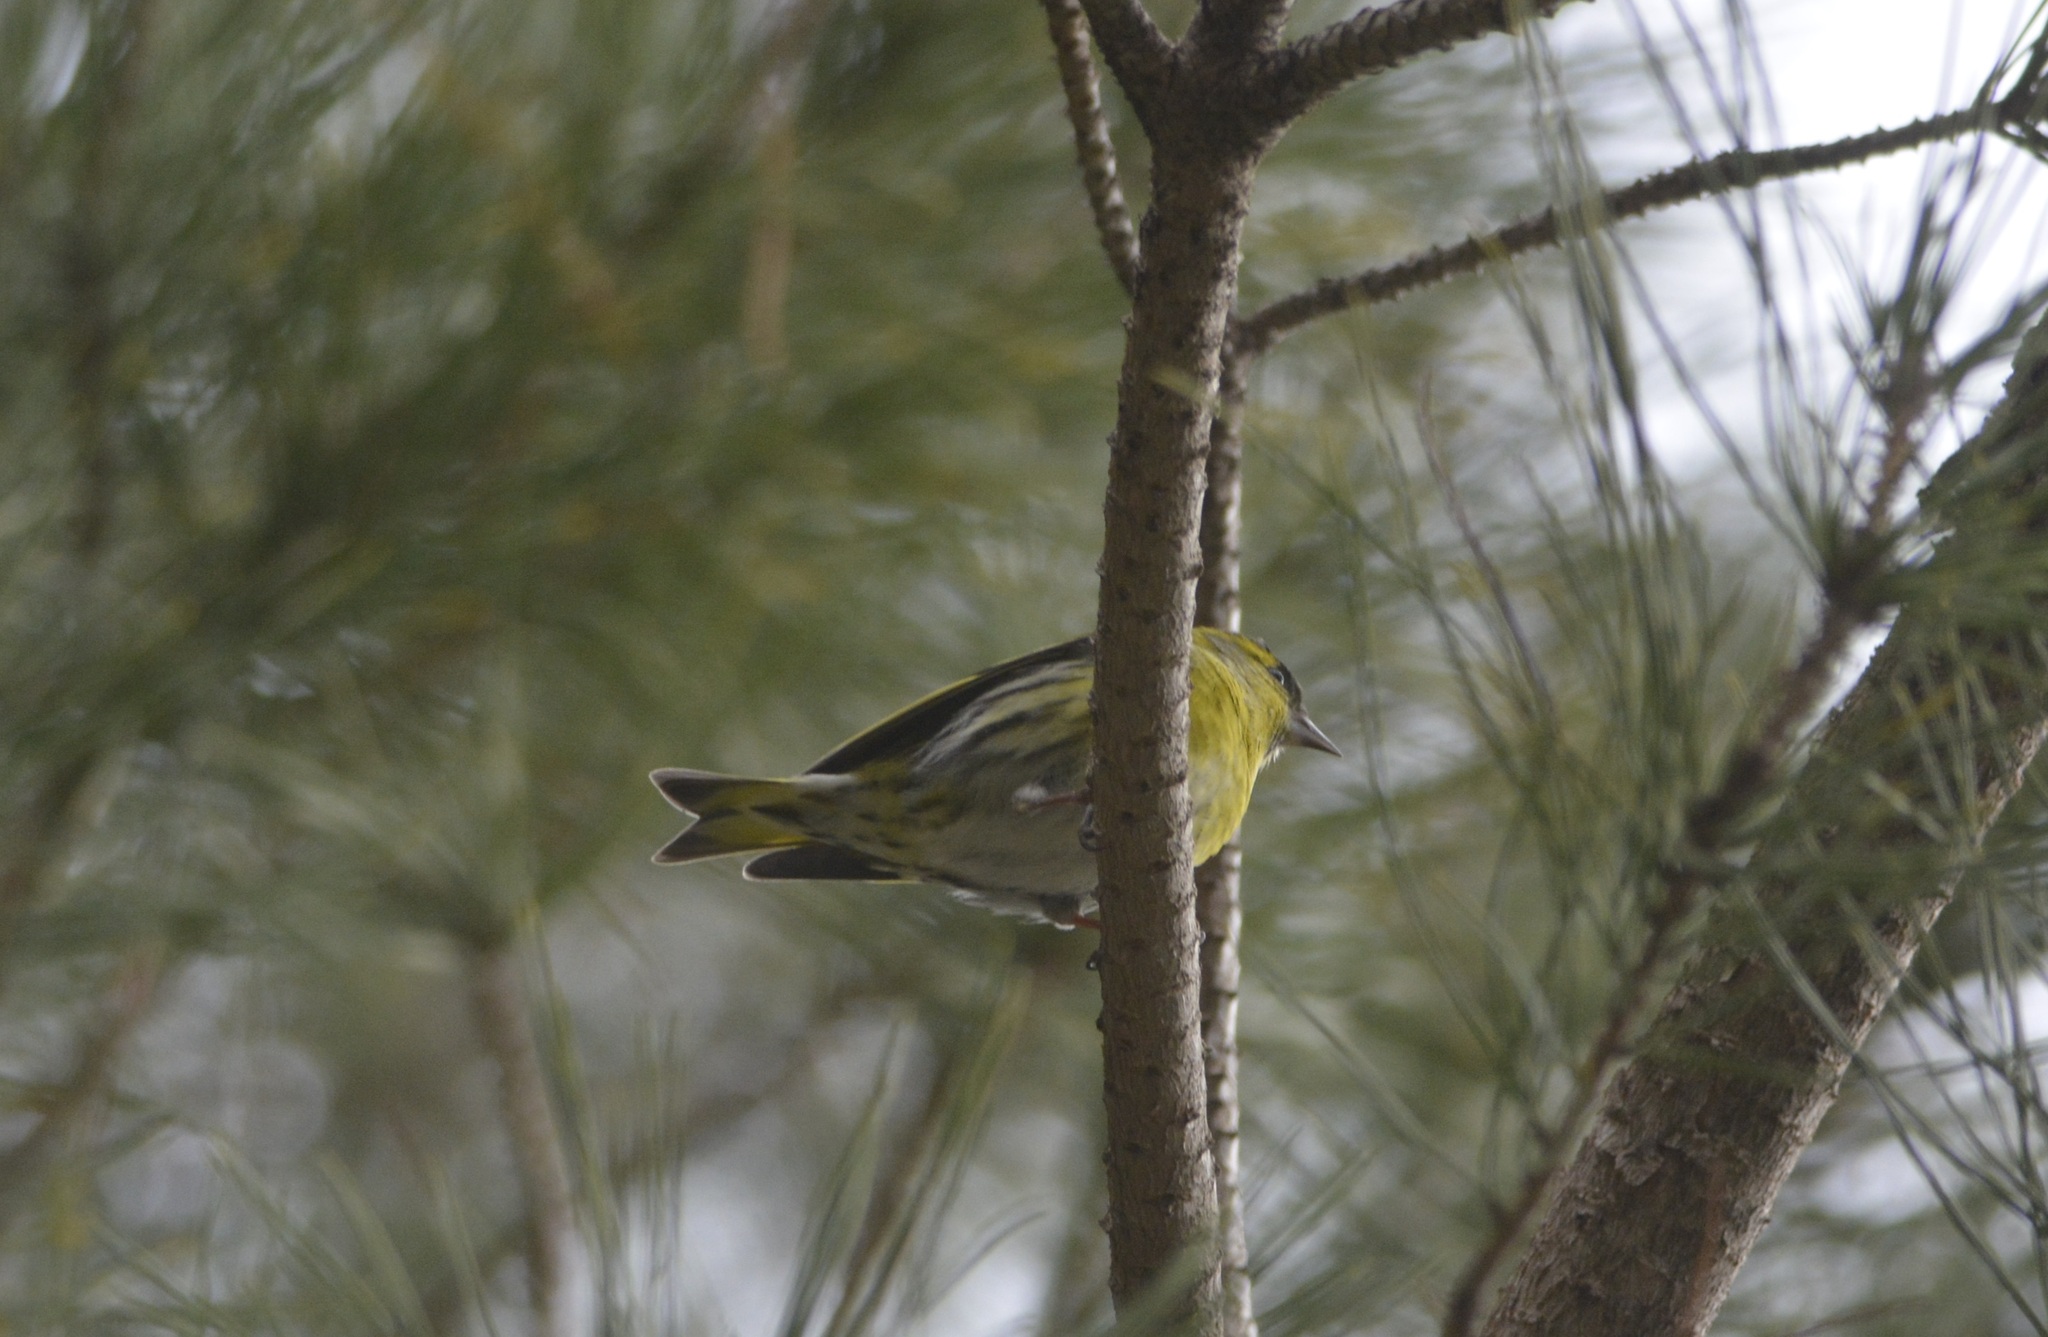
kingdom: Animalia
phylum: Chordata
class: Aves
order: Passeriformes
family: Fringillidae
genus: Spinus
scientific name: Spinus spinus
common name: Eurasian siskin
